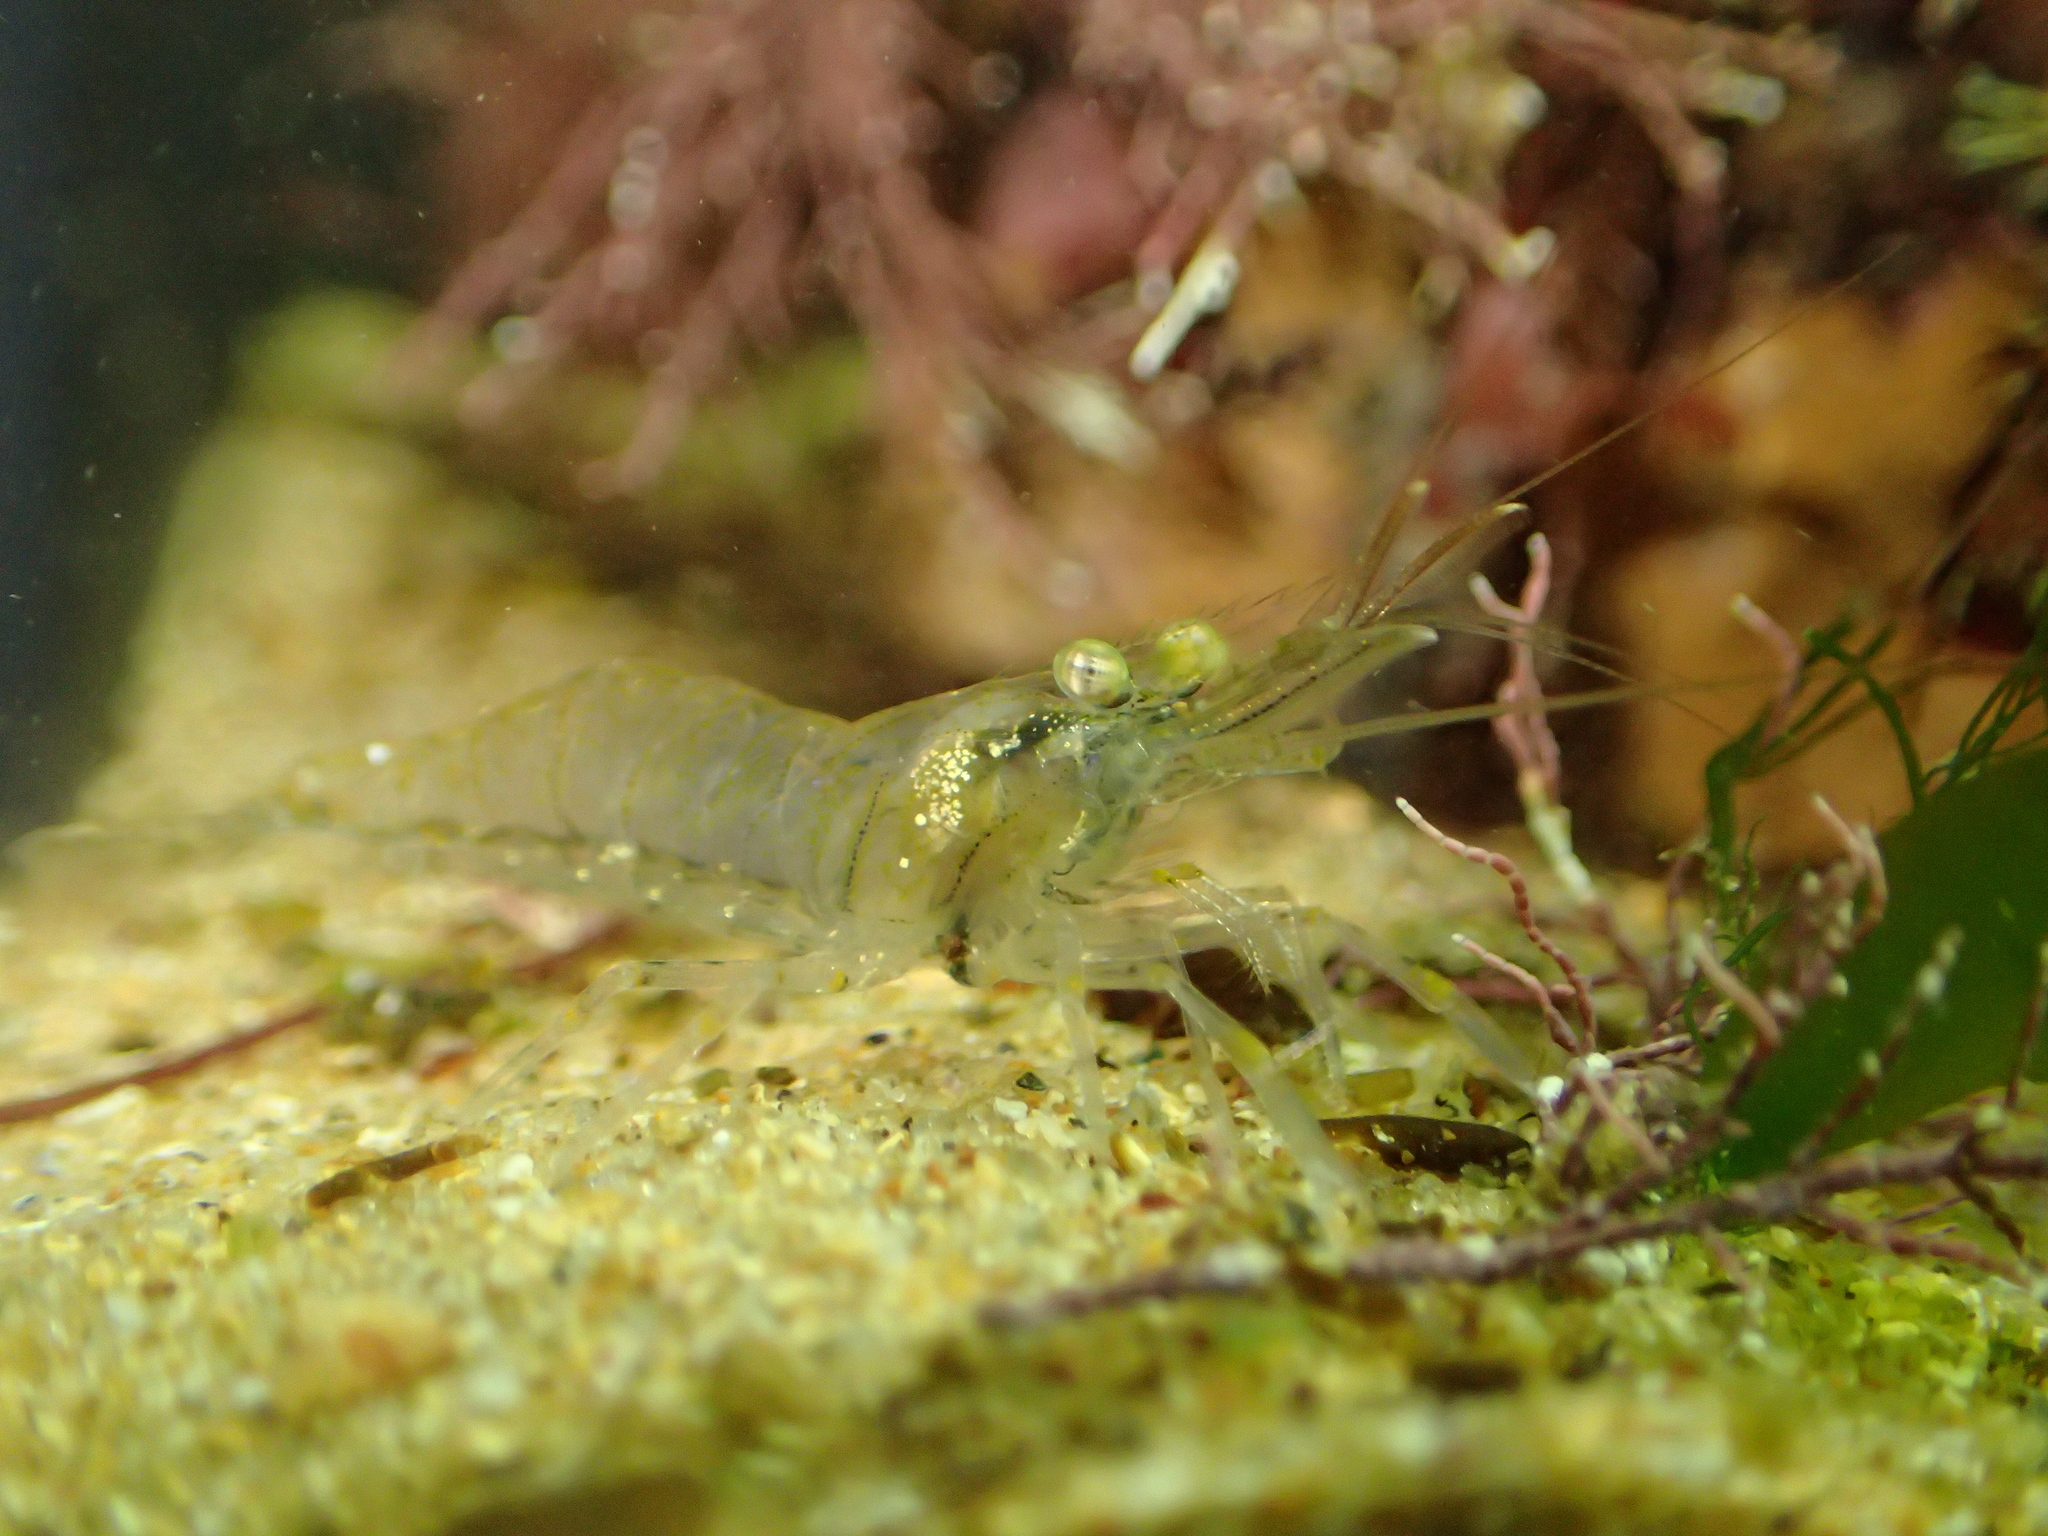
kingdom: Animalia
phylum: Arthropoda
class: Malacostraca
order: Decapoda
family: Palaemonidae
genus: Palaemon
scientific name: Palaemon elegans
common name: Grass prawm
